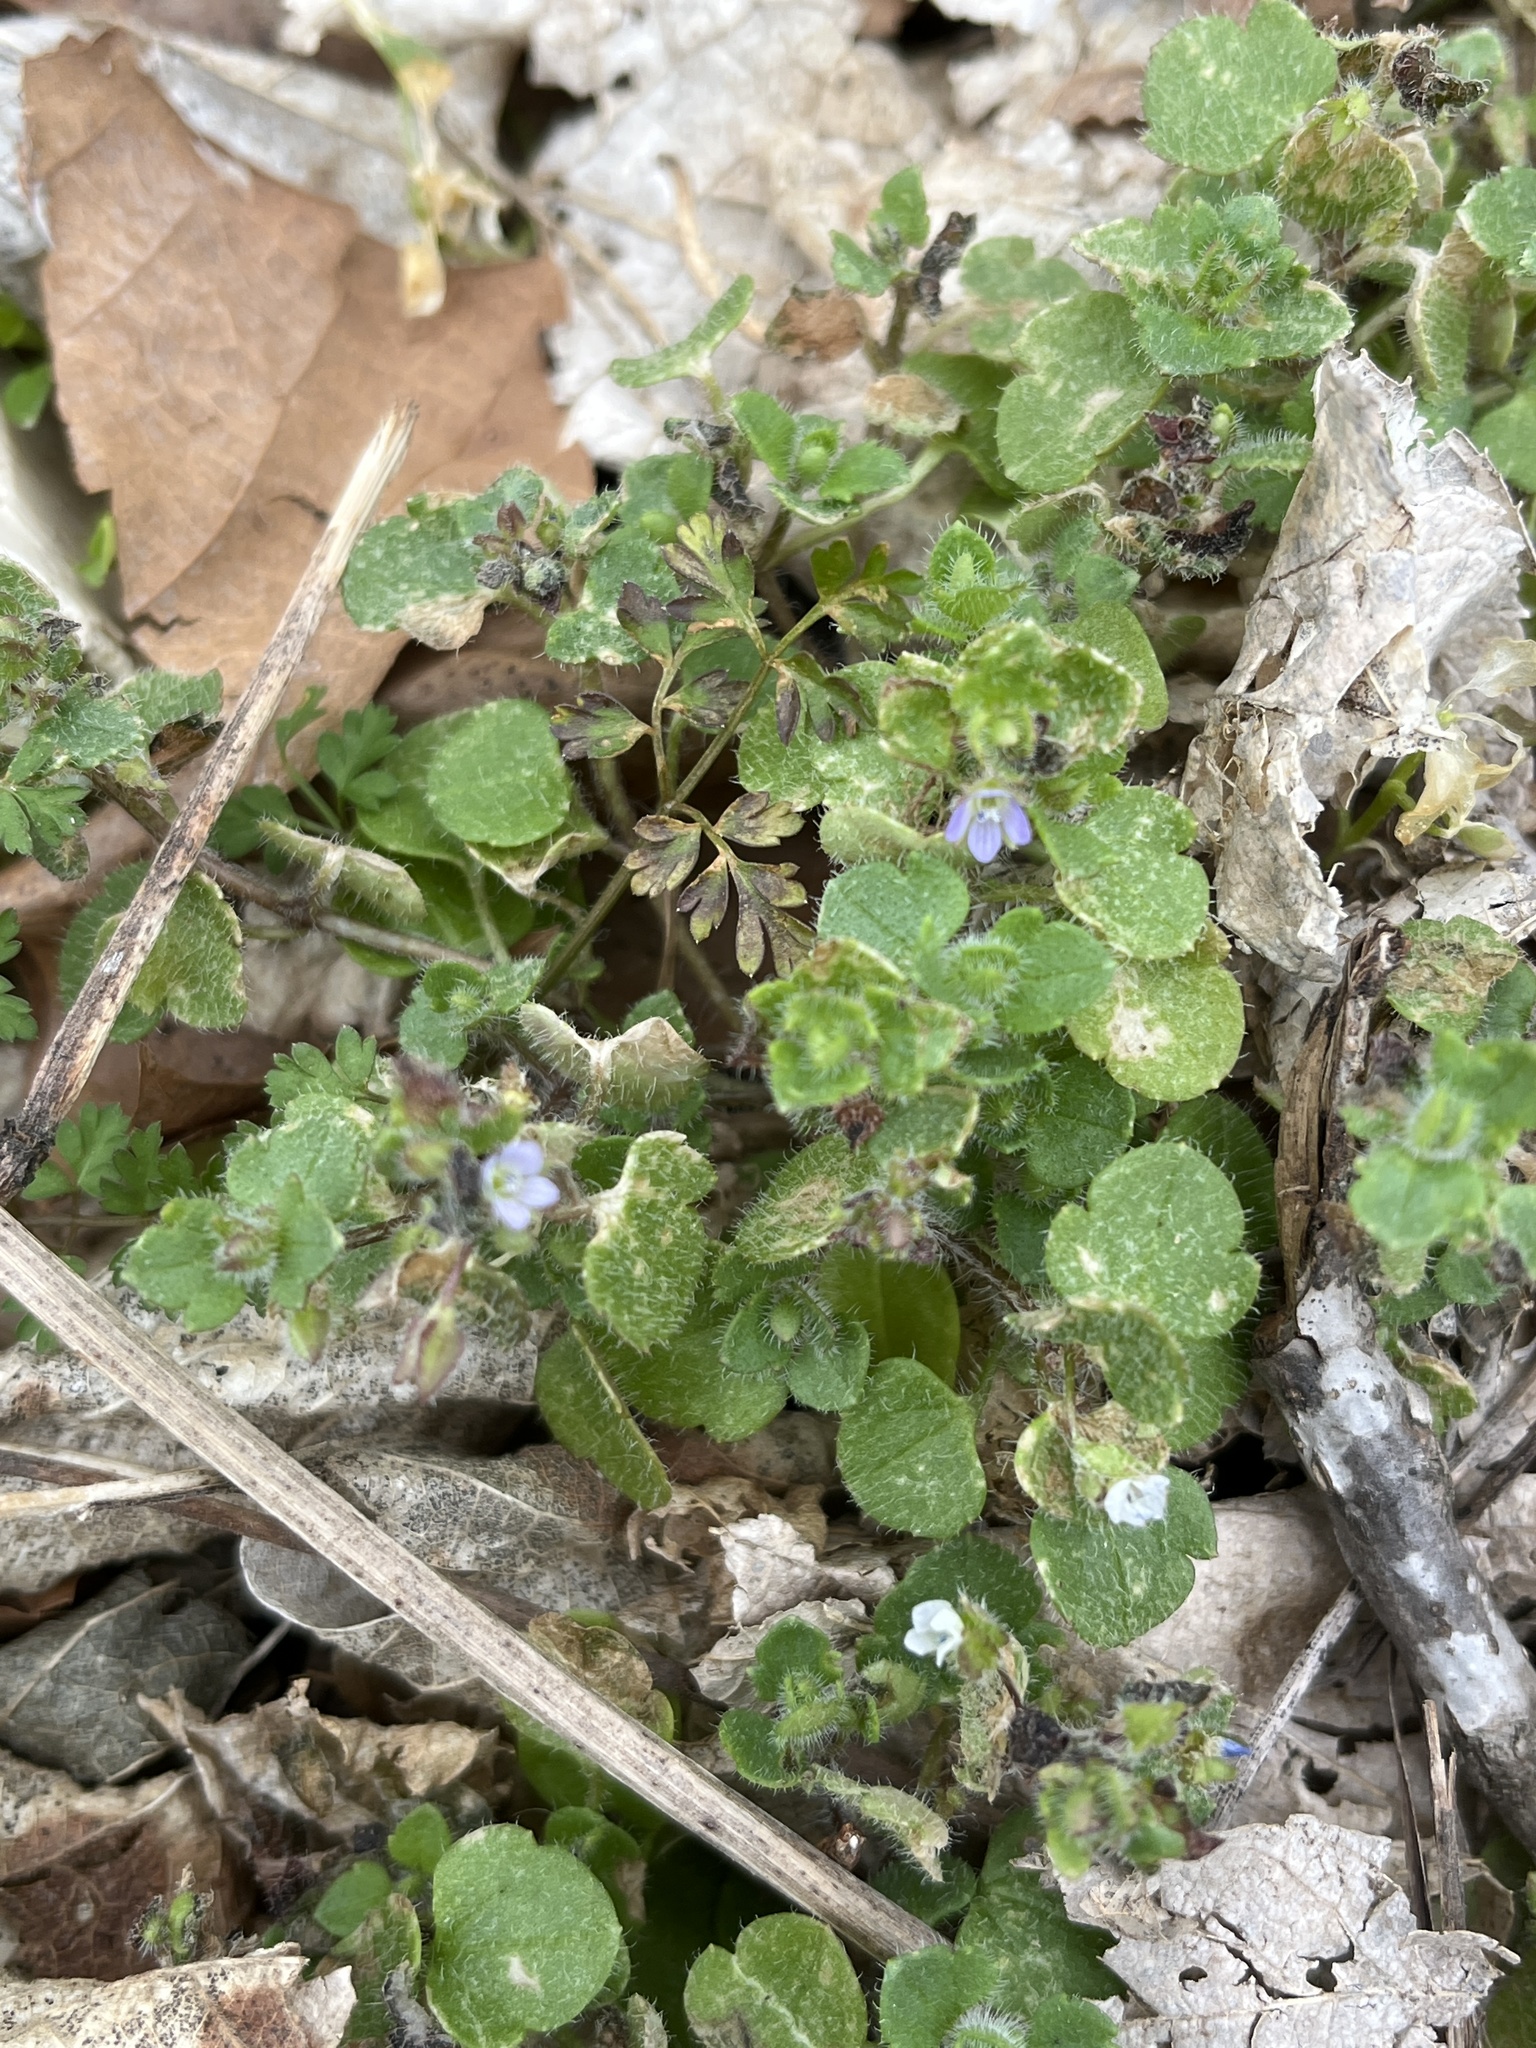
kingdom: Plantae
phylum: Tracheophyta
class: Magnoliopsida
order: Lamiales
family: Plantaginaceae
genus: Veronica
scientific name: Veronica hederifolia
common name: Ivy-leaved speedwell
